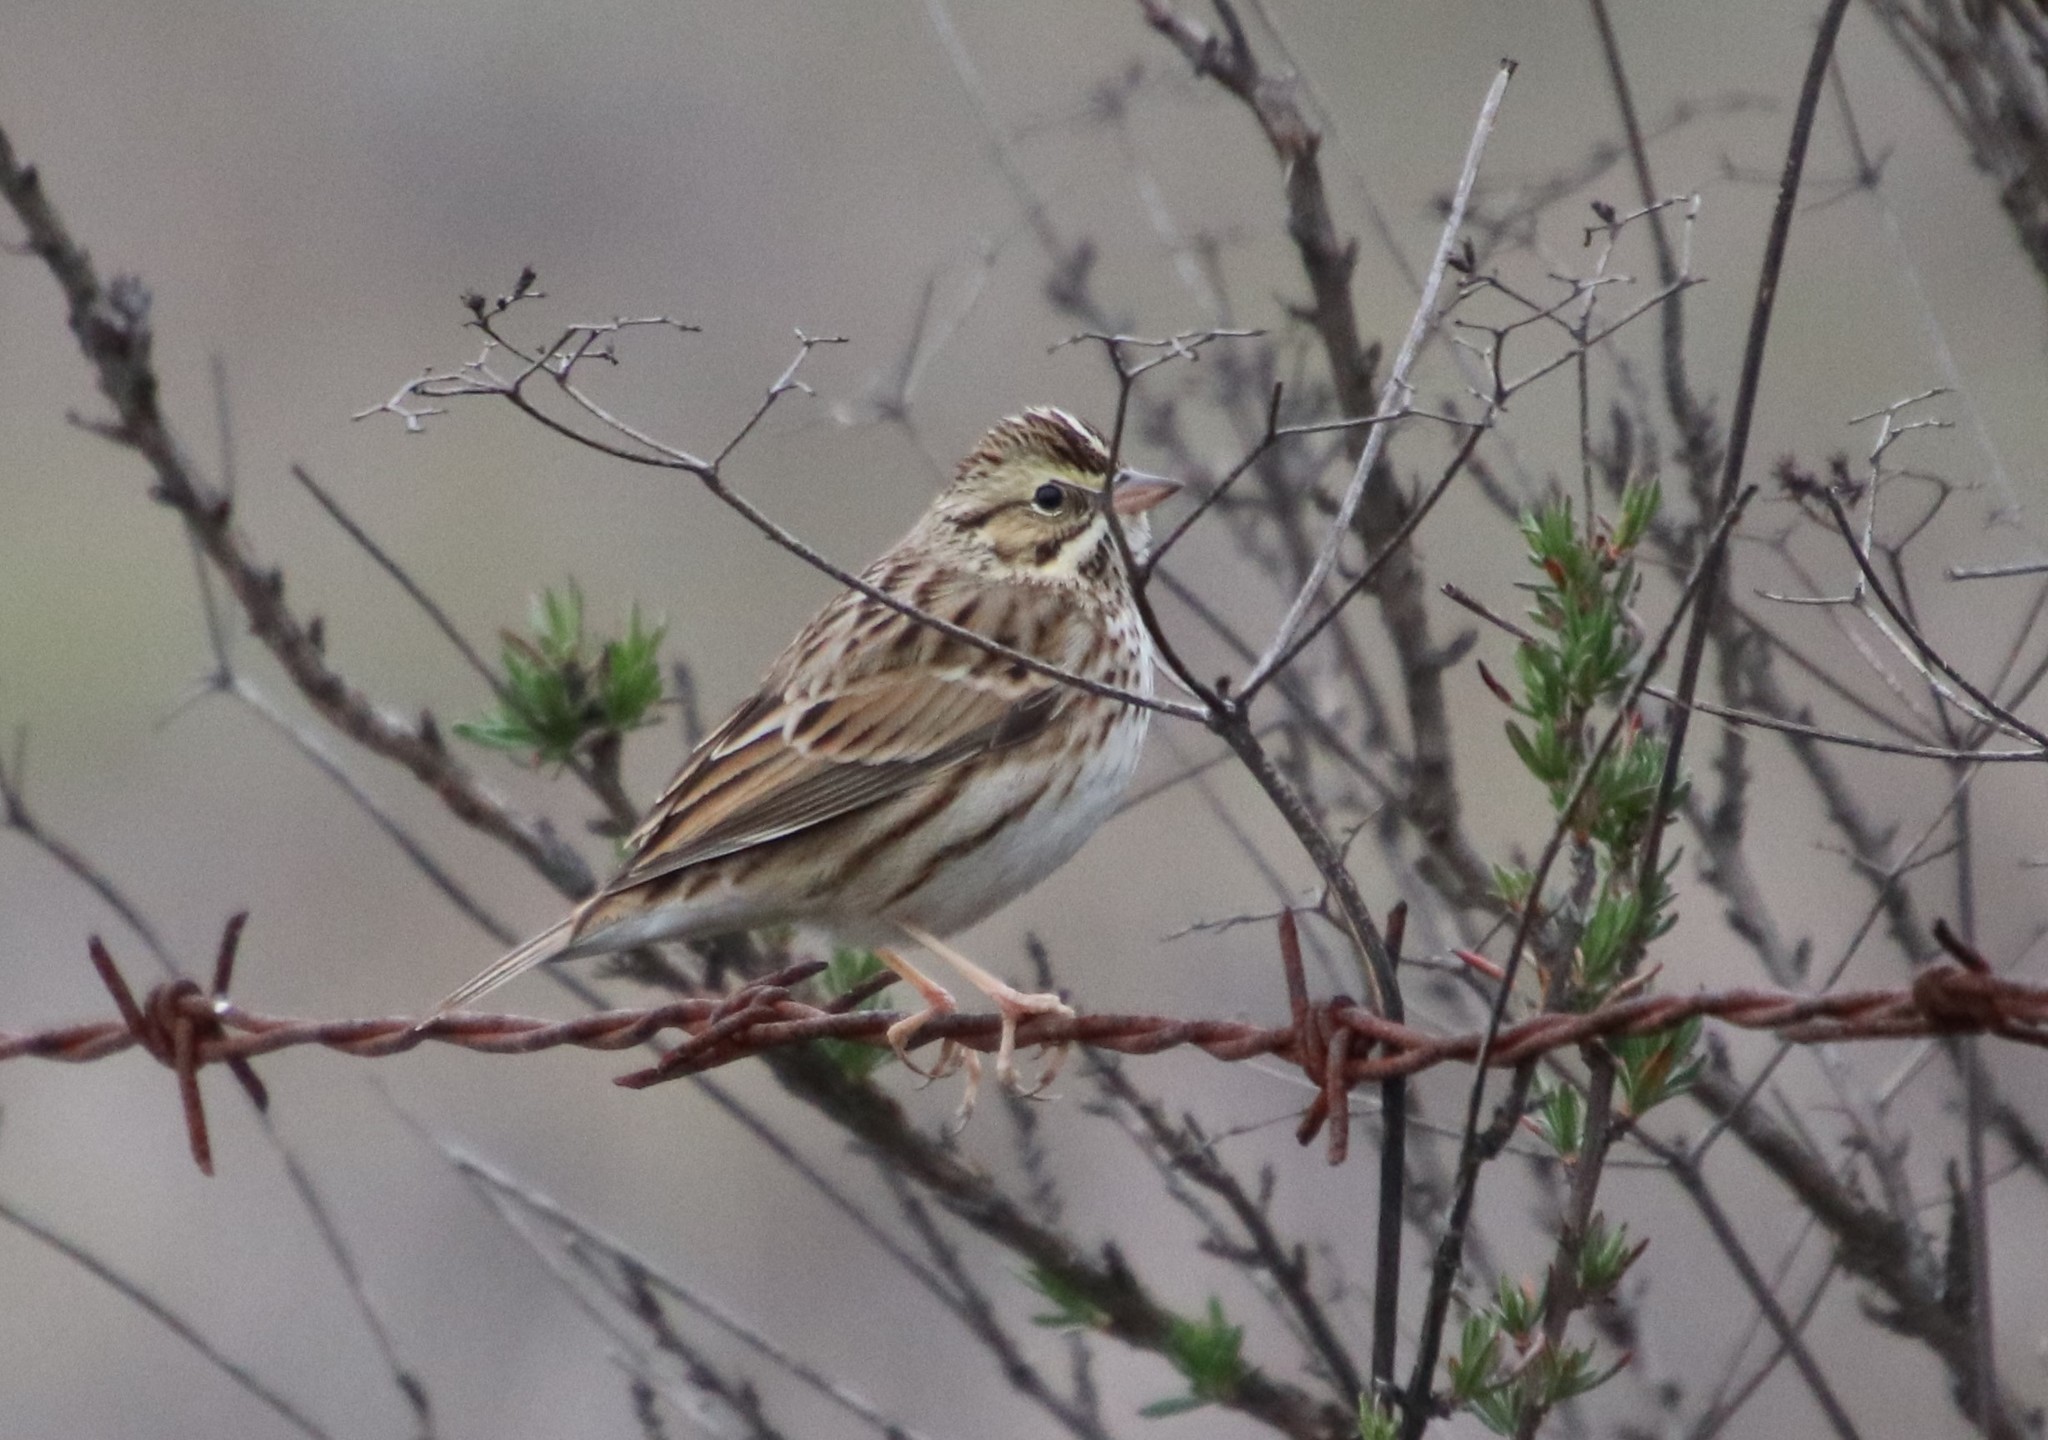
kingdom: Animalia
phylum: Chordata
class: Aves
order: Passeriformes
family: Passerellidae
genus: Passerculus
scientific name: Passerculus sandwichensis
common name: Savannah sparrow
